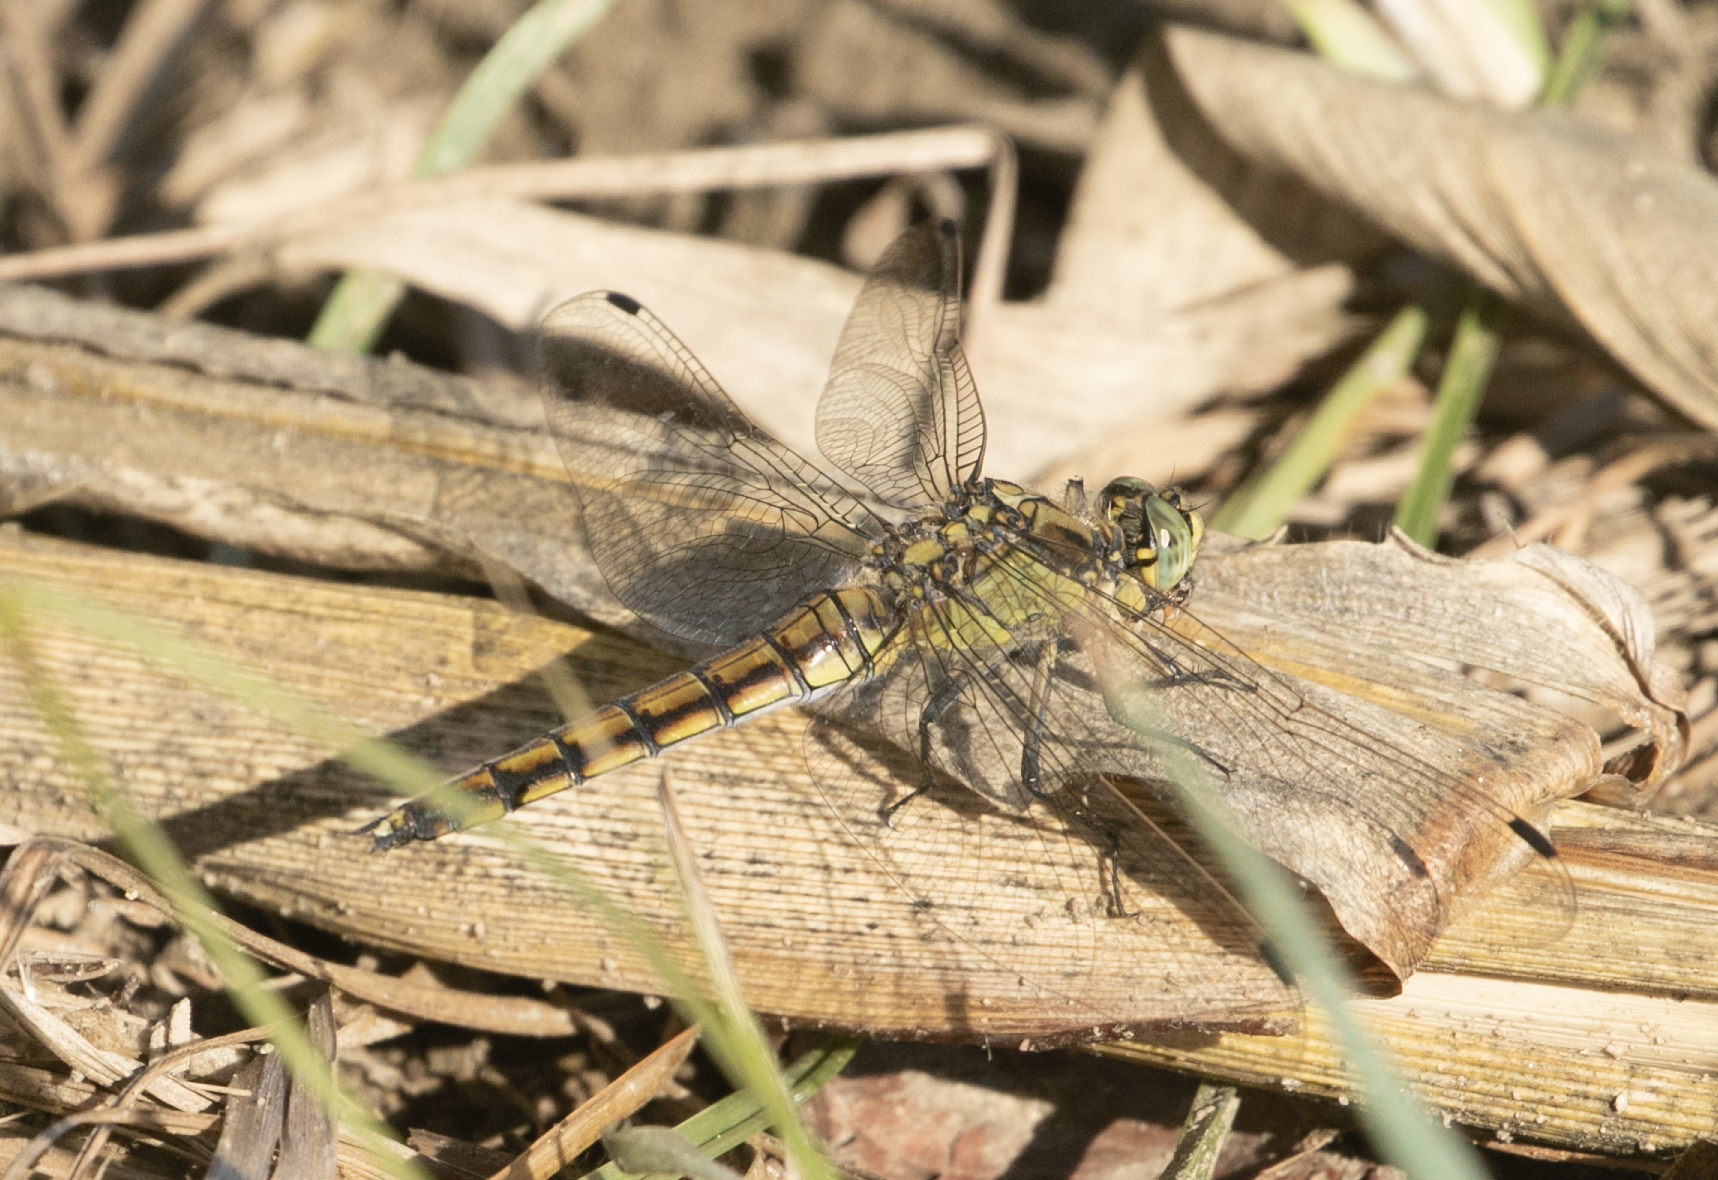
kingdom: Animalia
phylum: Arthropoda
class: Insecta
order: Odonata
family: Libellulidae
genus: Orthetrum
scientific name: Orthetrum cancellatum
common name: Black-tailed skimmer
